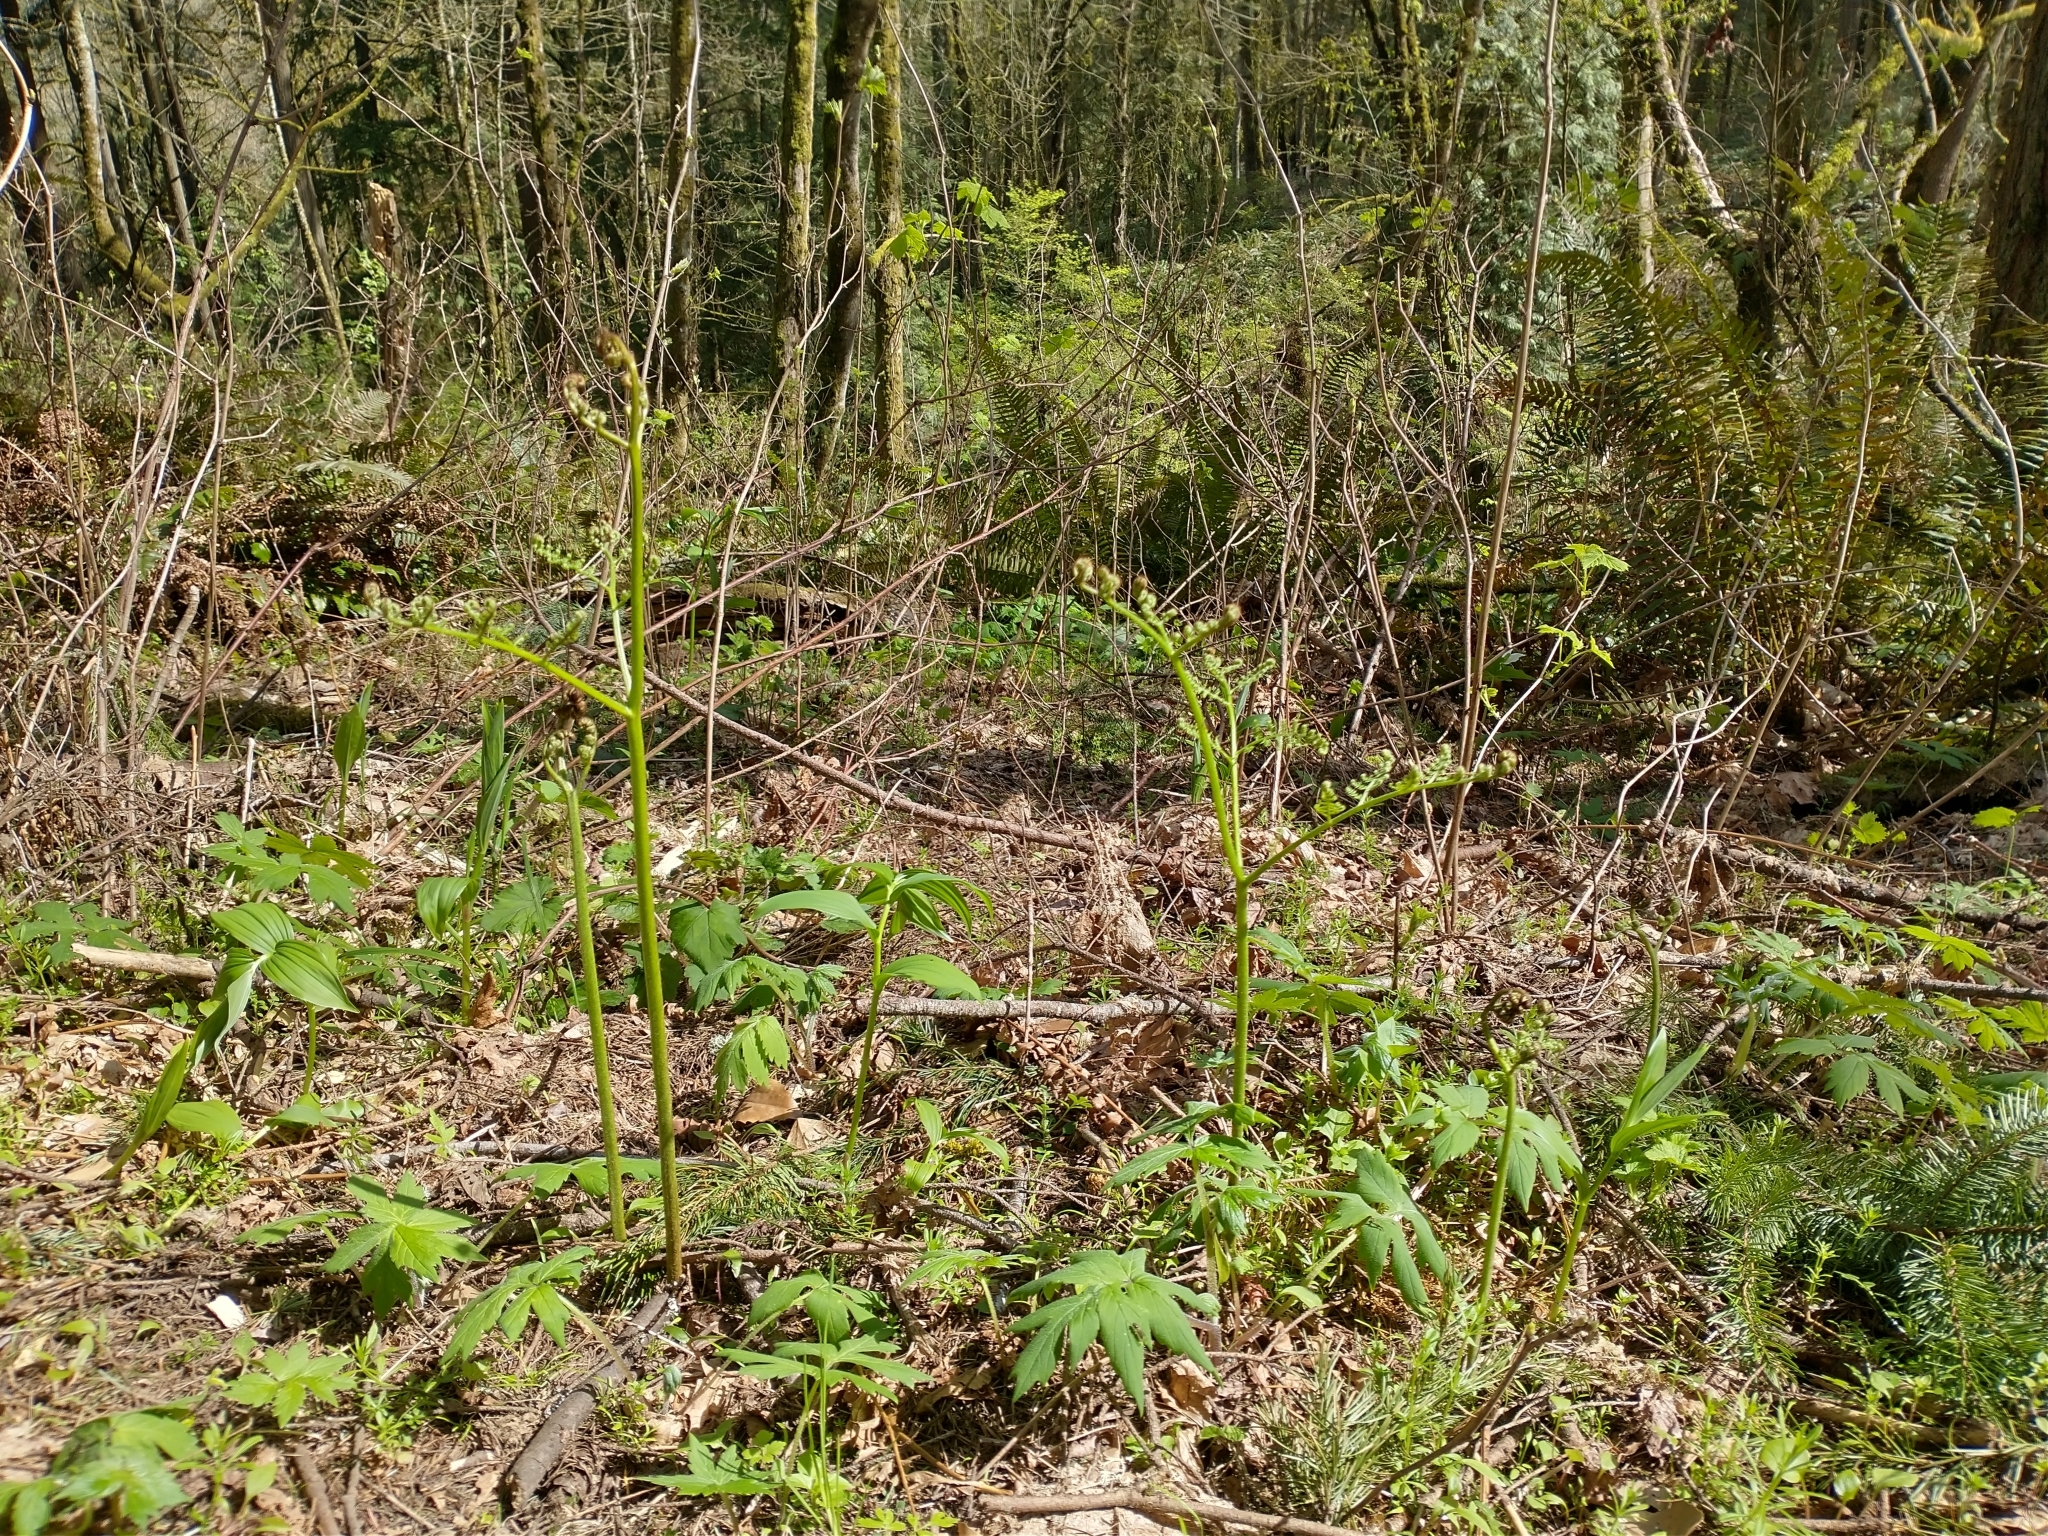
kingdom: Plantae
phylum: Tracheophyta
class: Polypodiopsida
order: Polypodiales
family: Dennstaedtiaceae
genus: Pteridium
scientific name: Pteridium aquilinum
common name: Bracken
